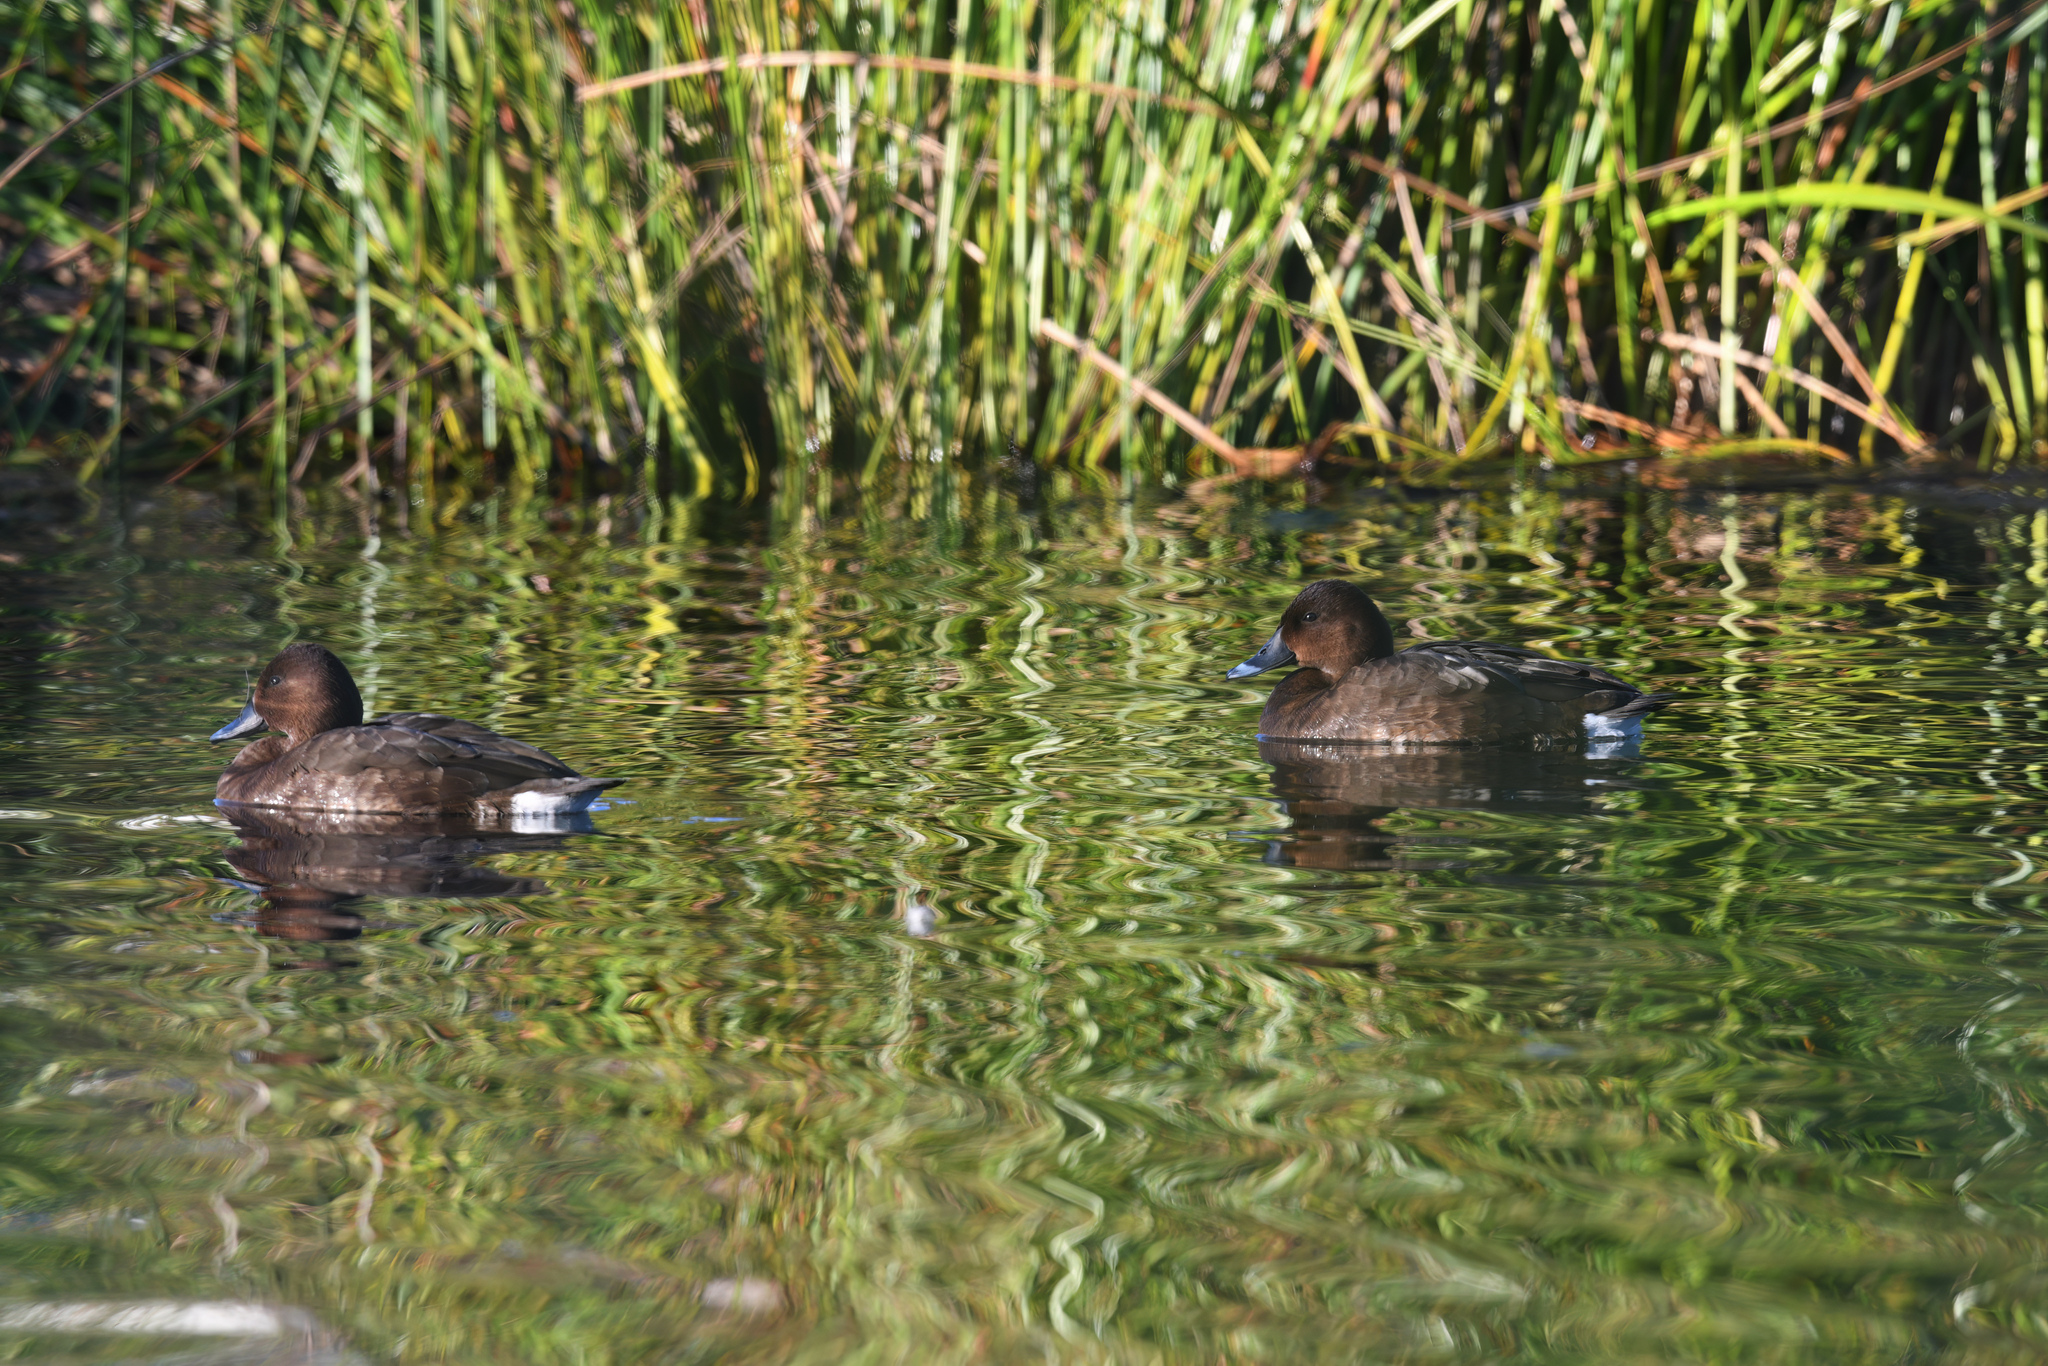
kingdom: Animalia
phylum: Chordata
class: Aves
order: Anseriformes
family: Anatidae
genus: Aythya
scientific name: Aythya australis
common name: Hardhead
